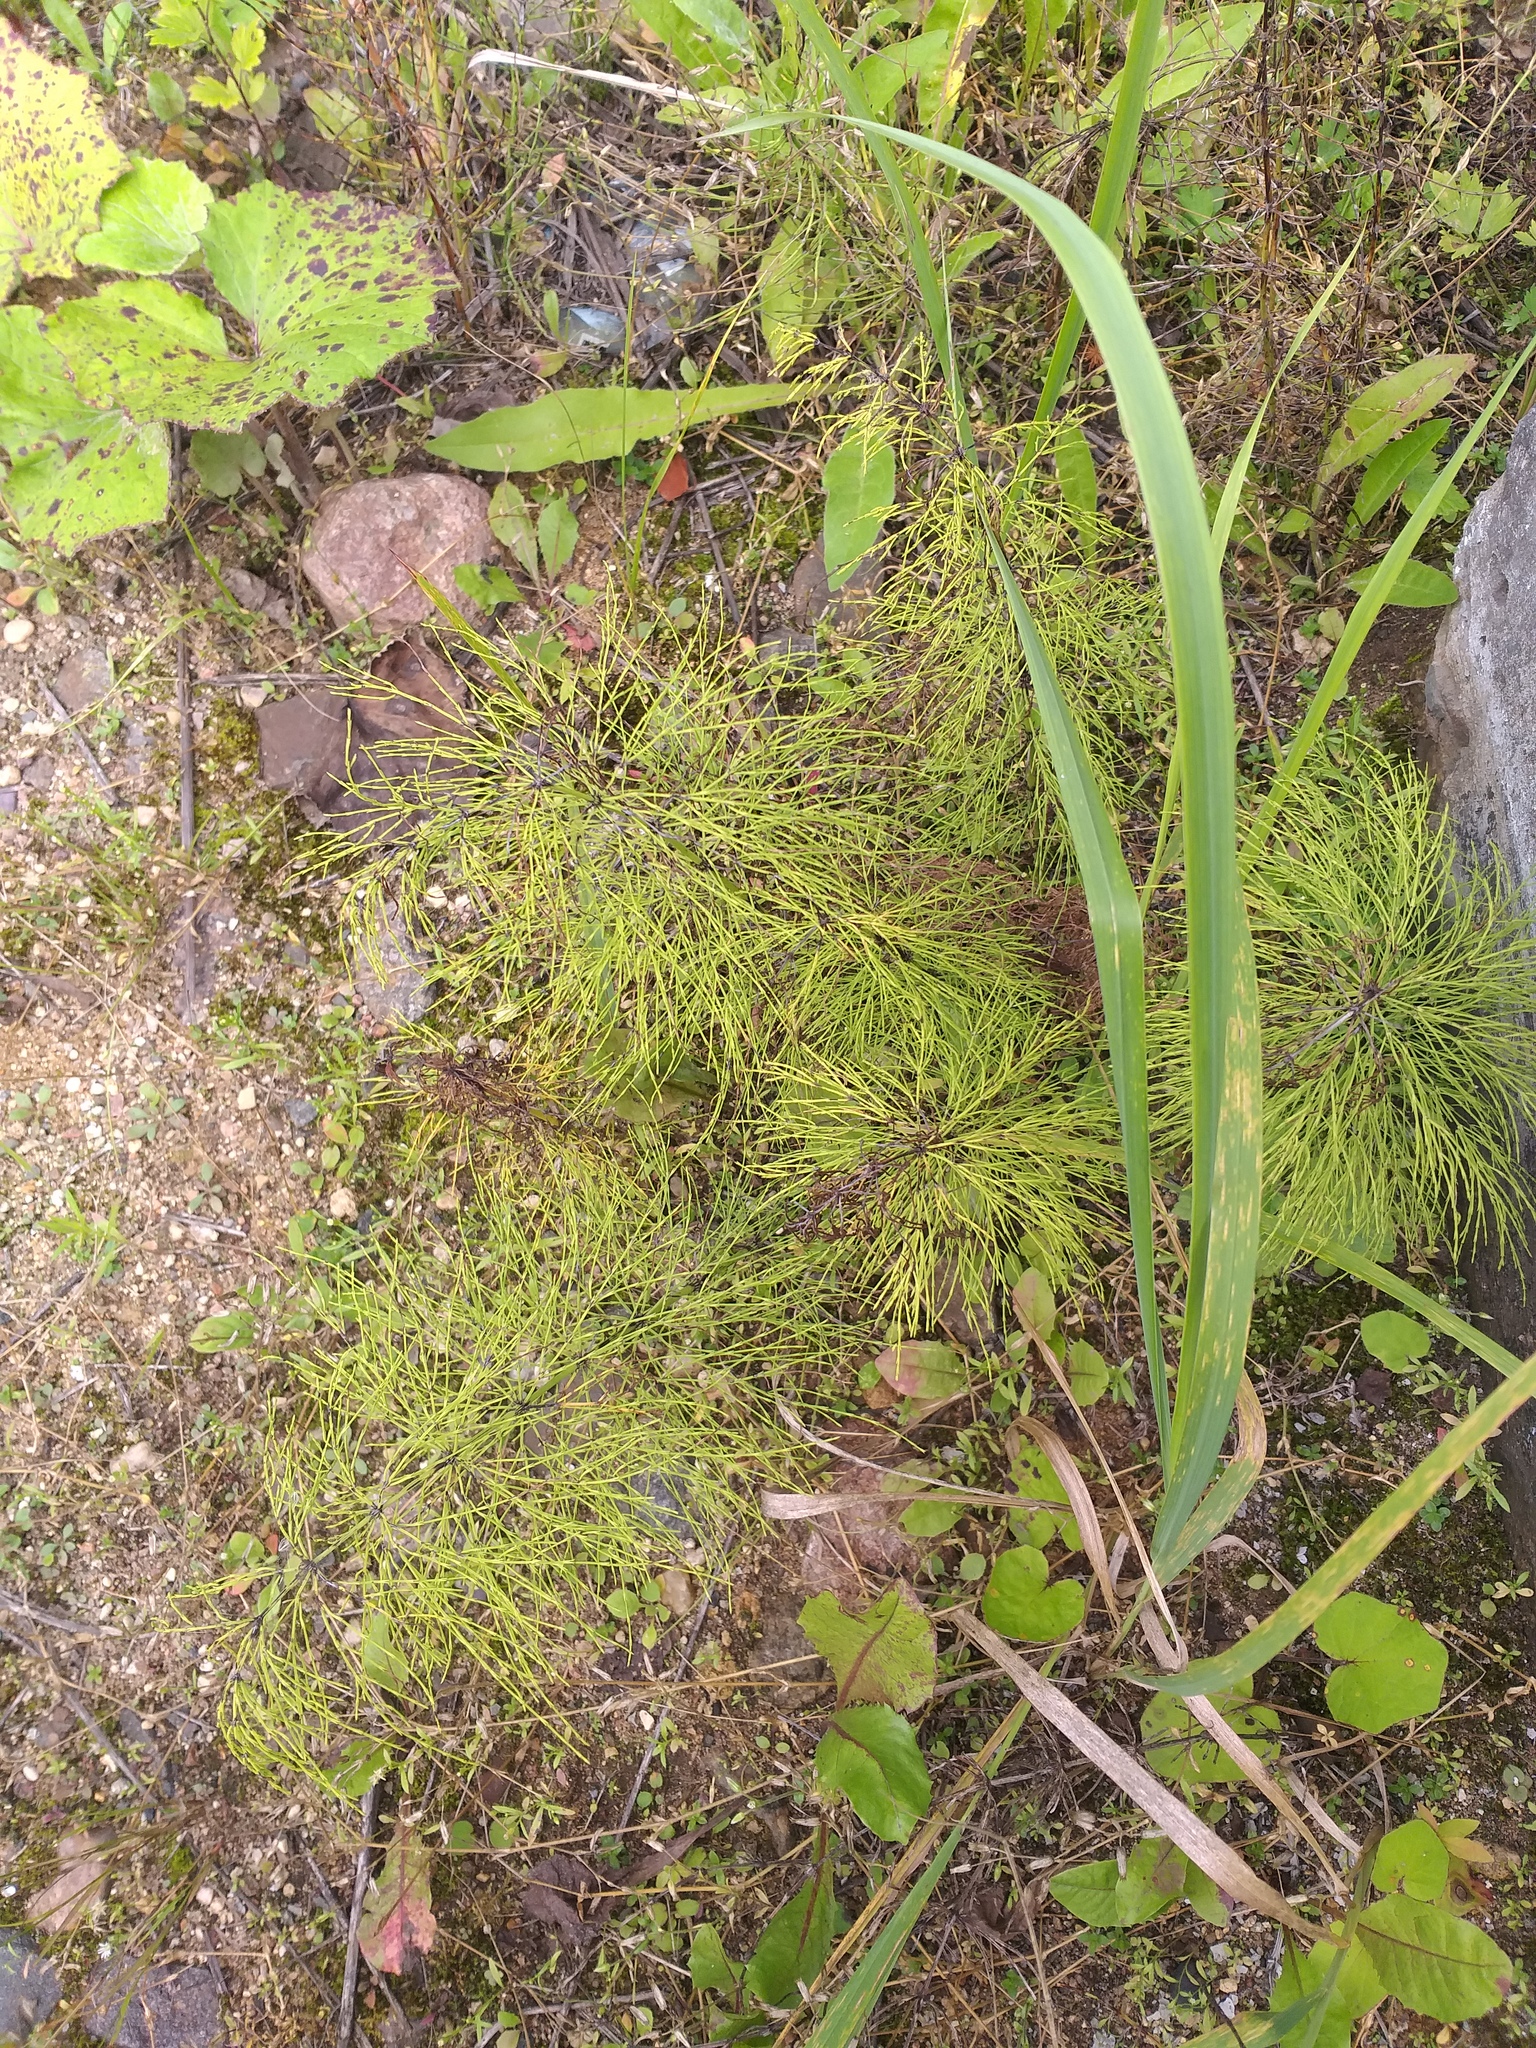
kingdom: Plantae
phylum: Tracheophyta
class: Polypodiopsida
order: Equisetales
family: Equisetaceae
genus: Equisetum
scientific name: Equisetum sylvaticum
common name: Wood horsetail
